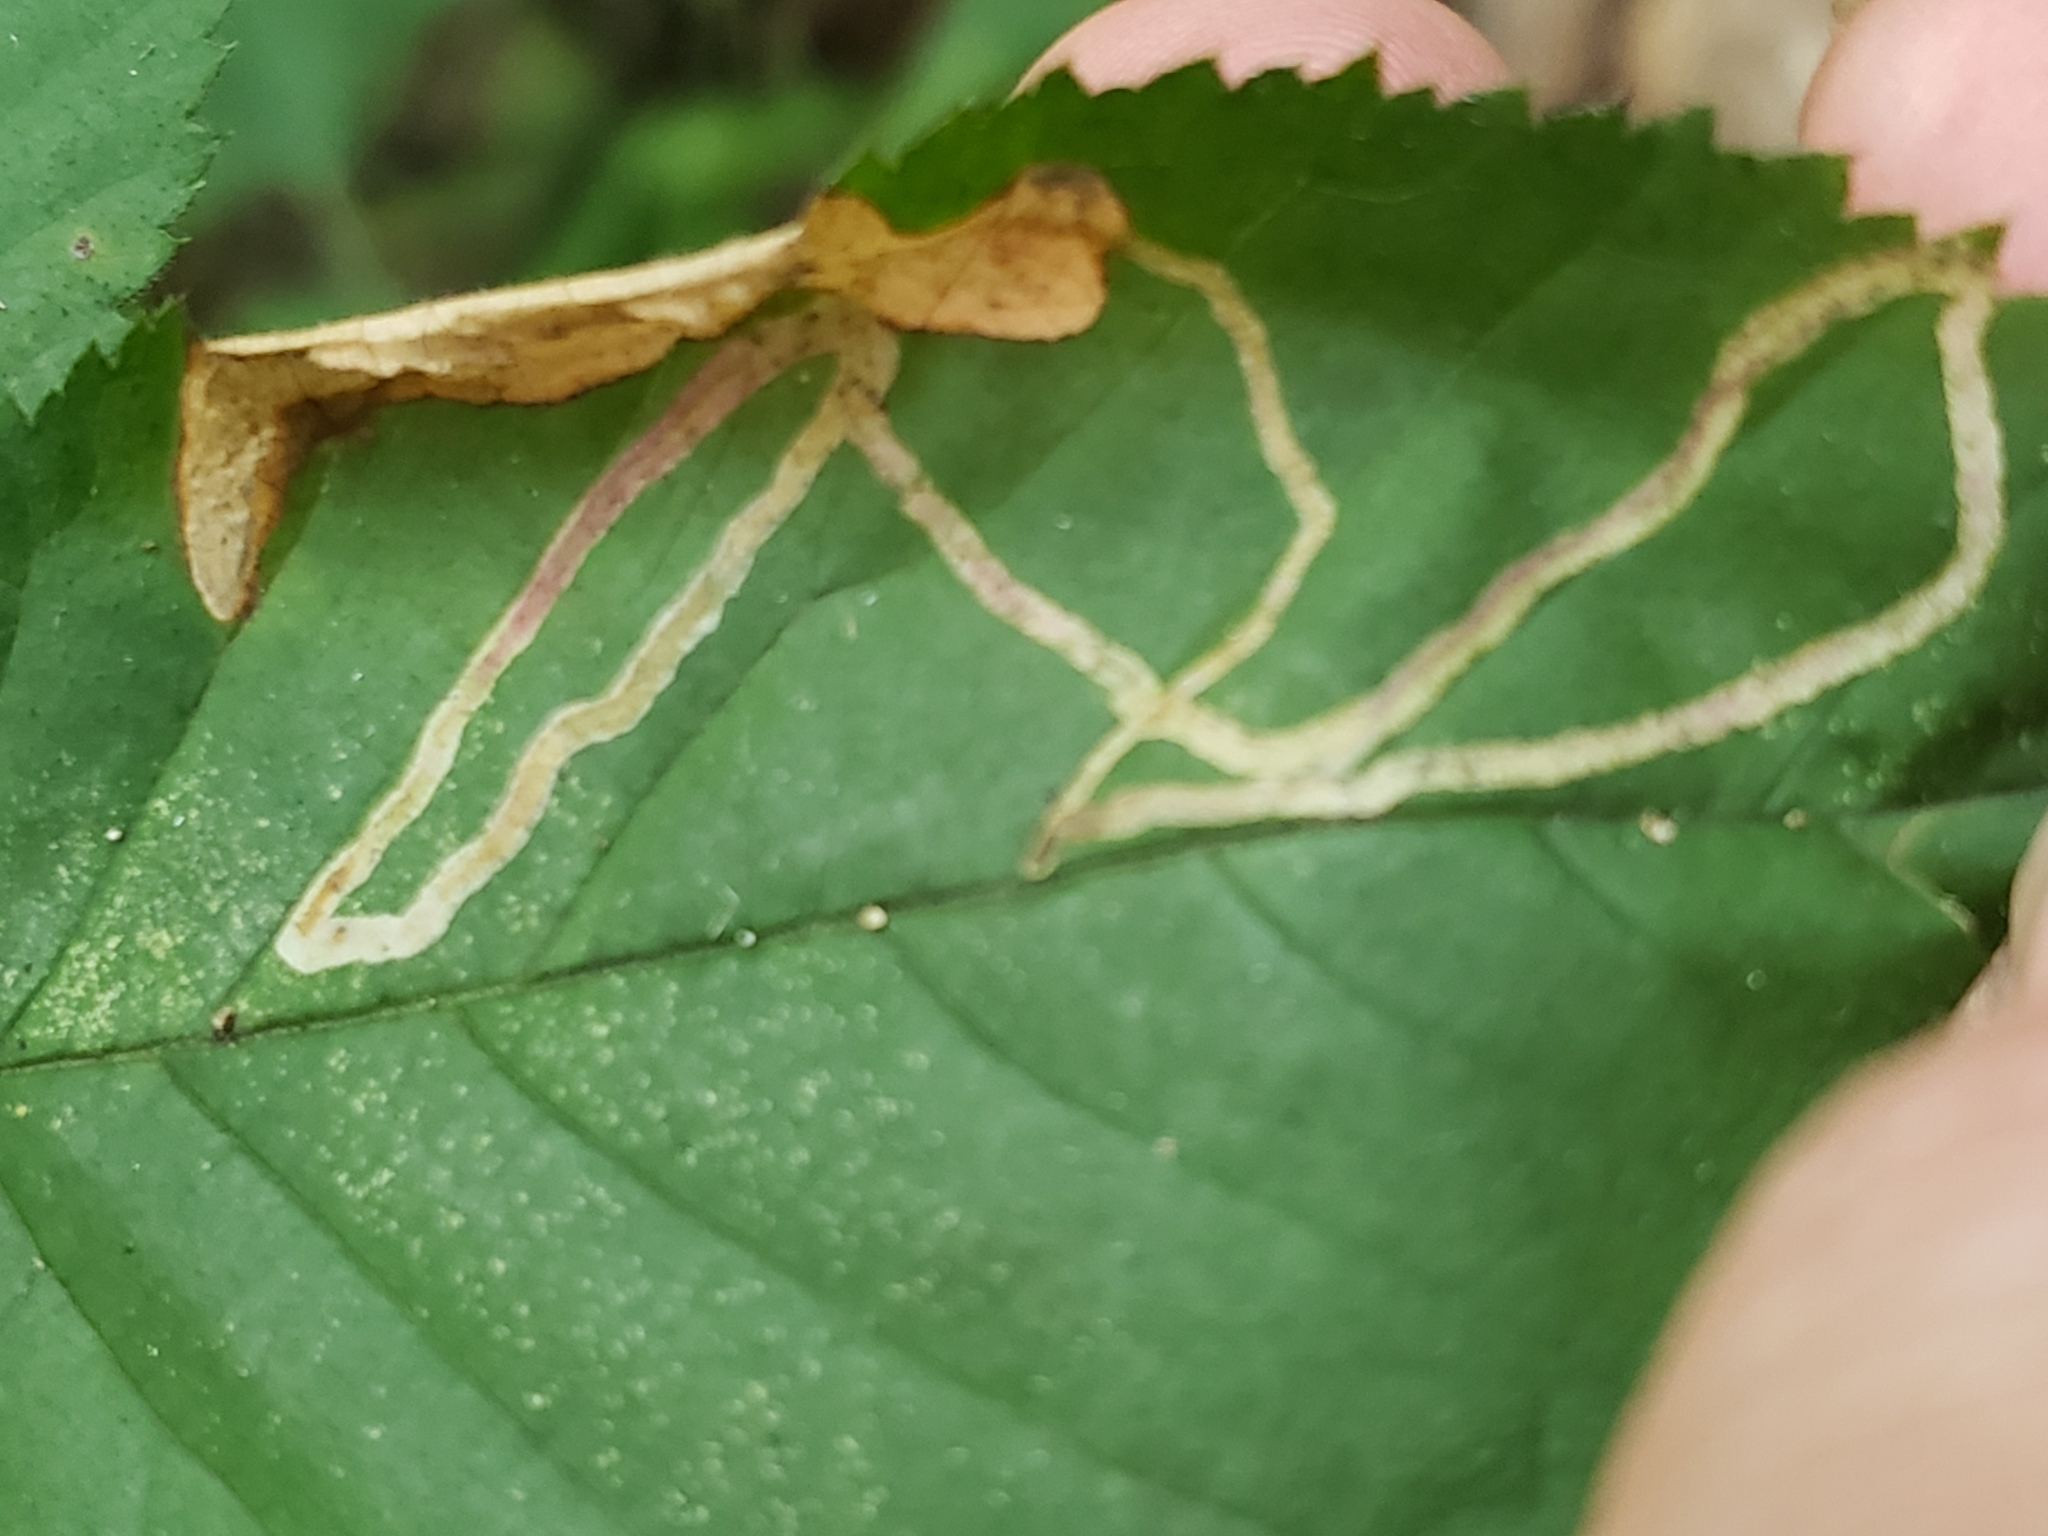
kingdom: Animalia
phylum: Arthropoda
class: Insecta
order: Diptera
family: Agromyzidae
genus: Agromyza
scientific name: Agromyza vockerothi
